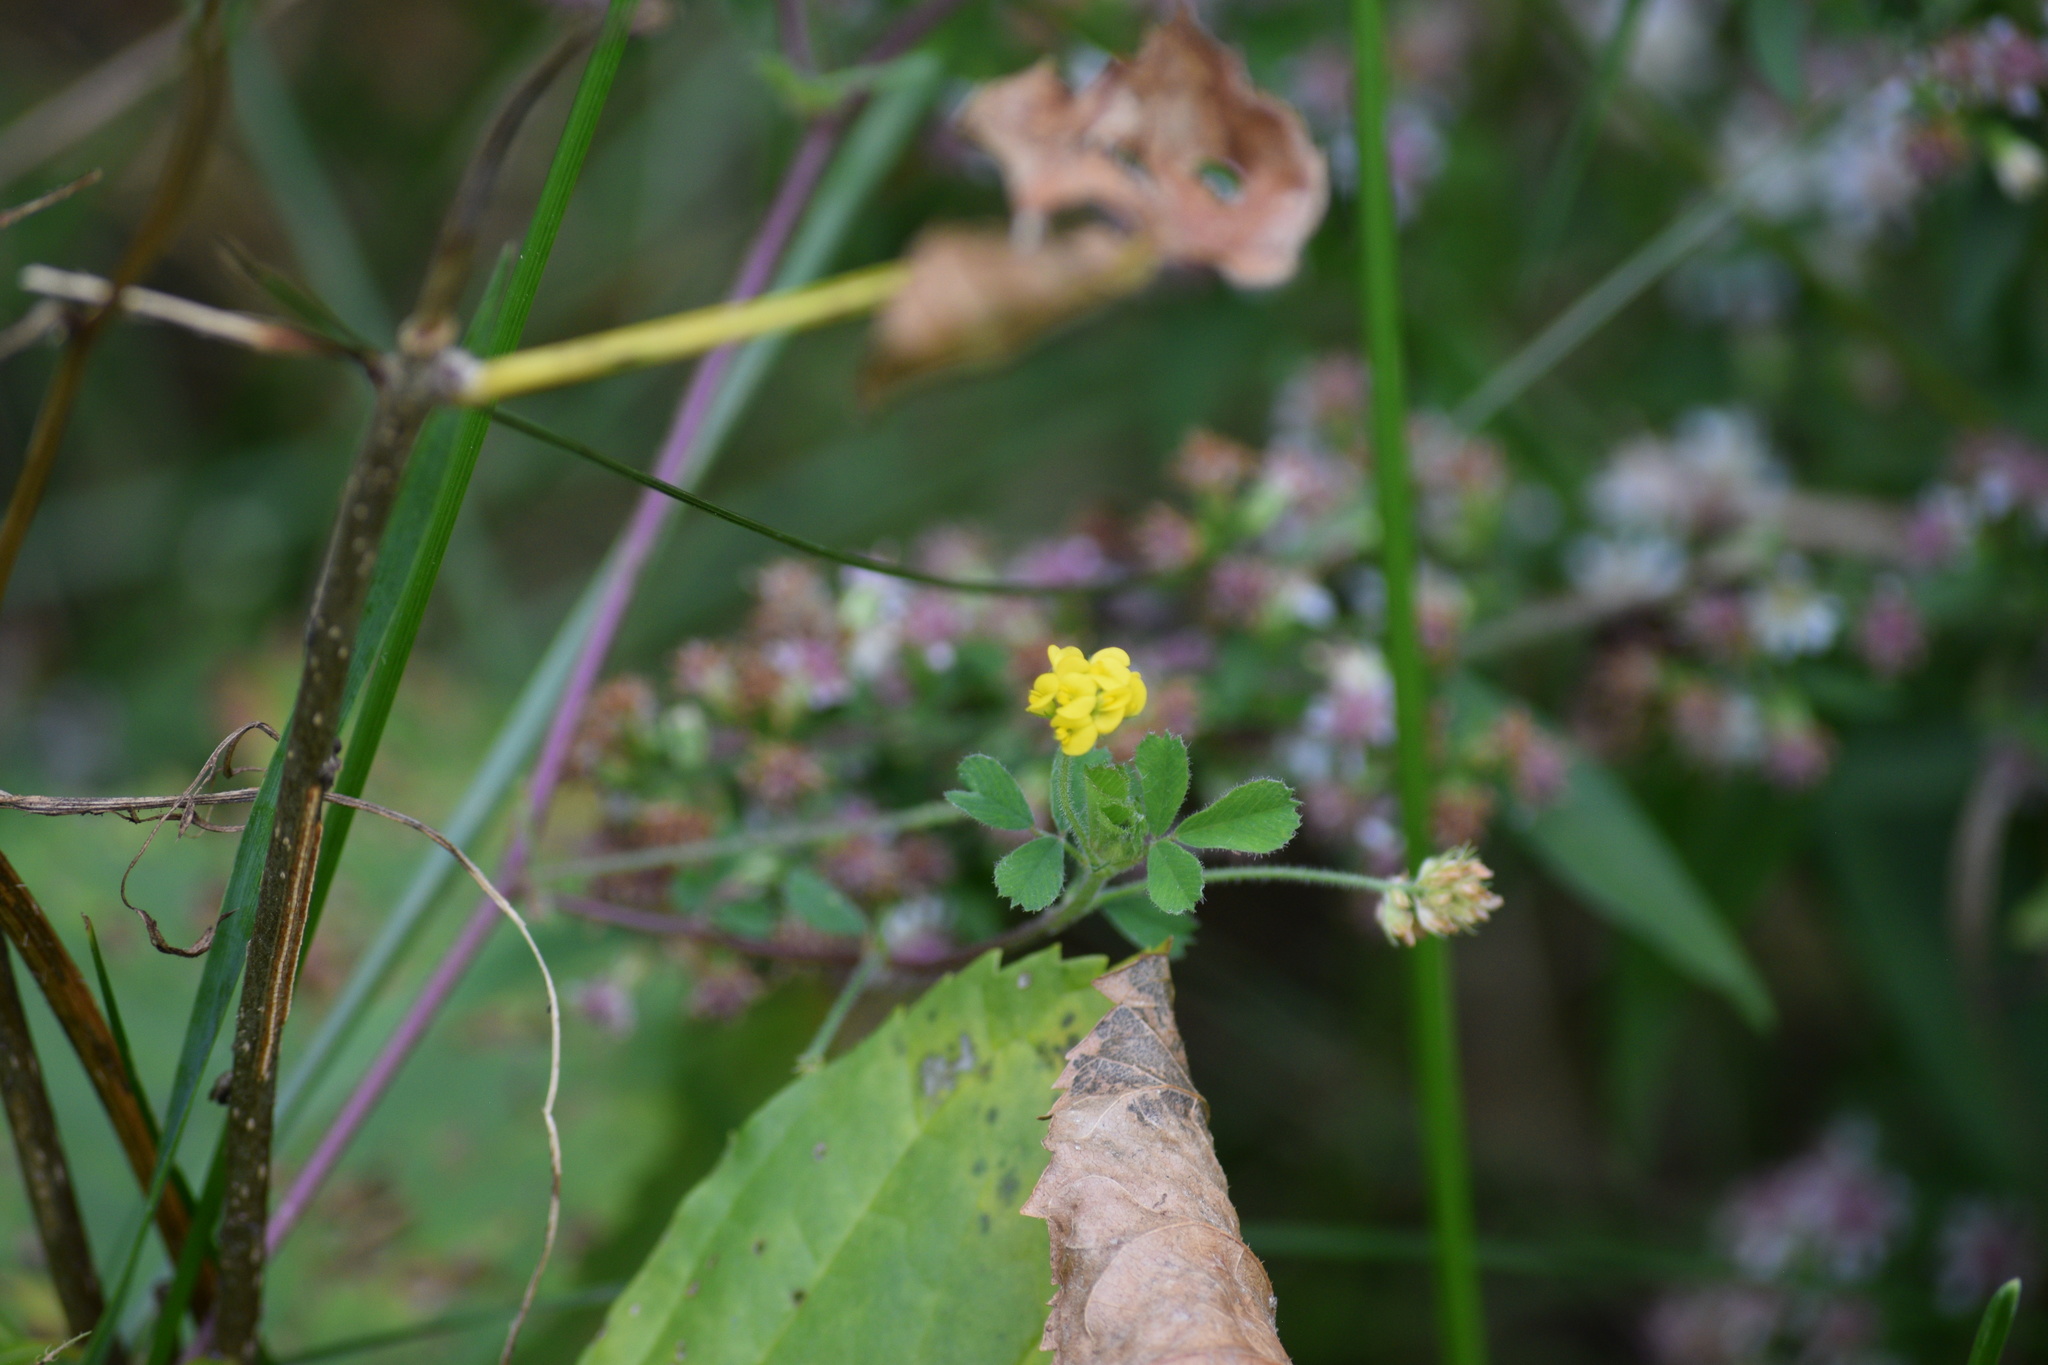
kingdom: Plantae
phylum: Tracheophyta
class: Magnoliopsida
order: Fabales
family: Fabaceae
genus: Medicago
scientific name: Medicago lupulina
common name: Black medick
